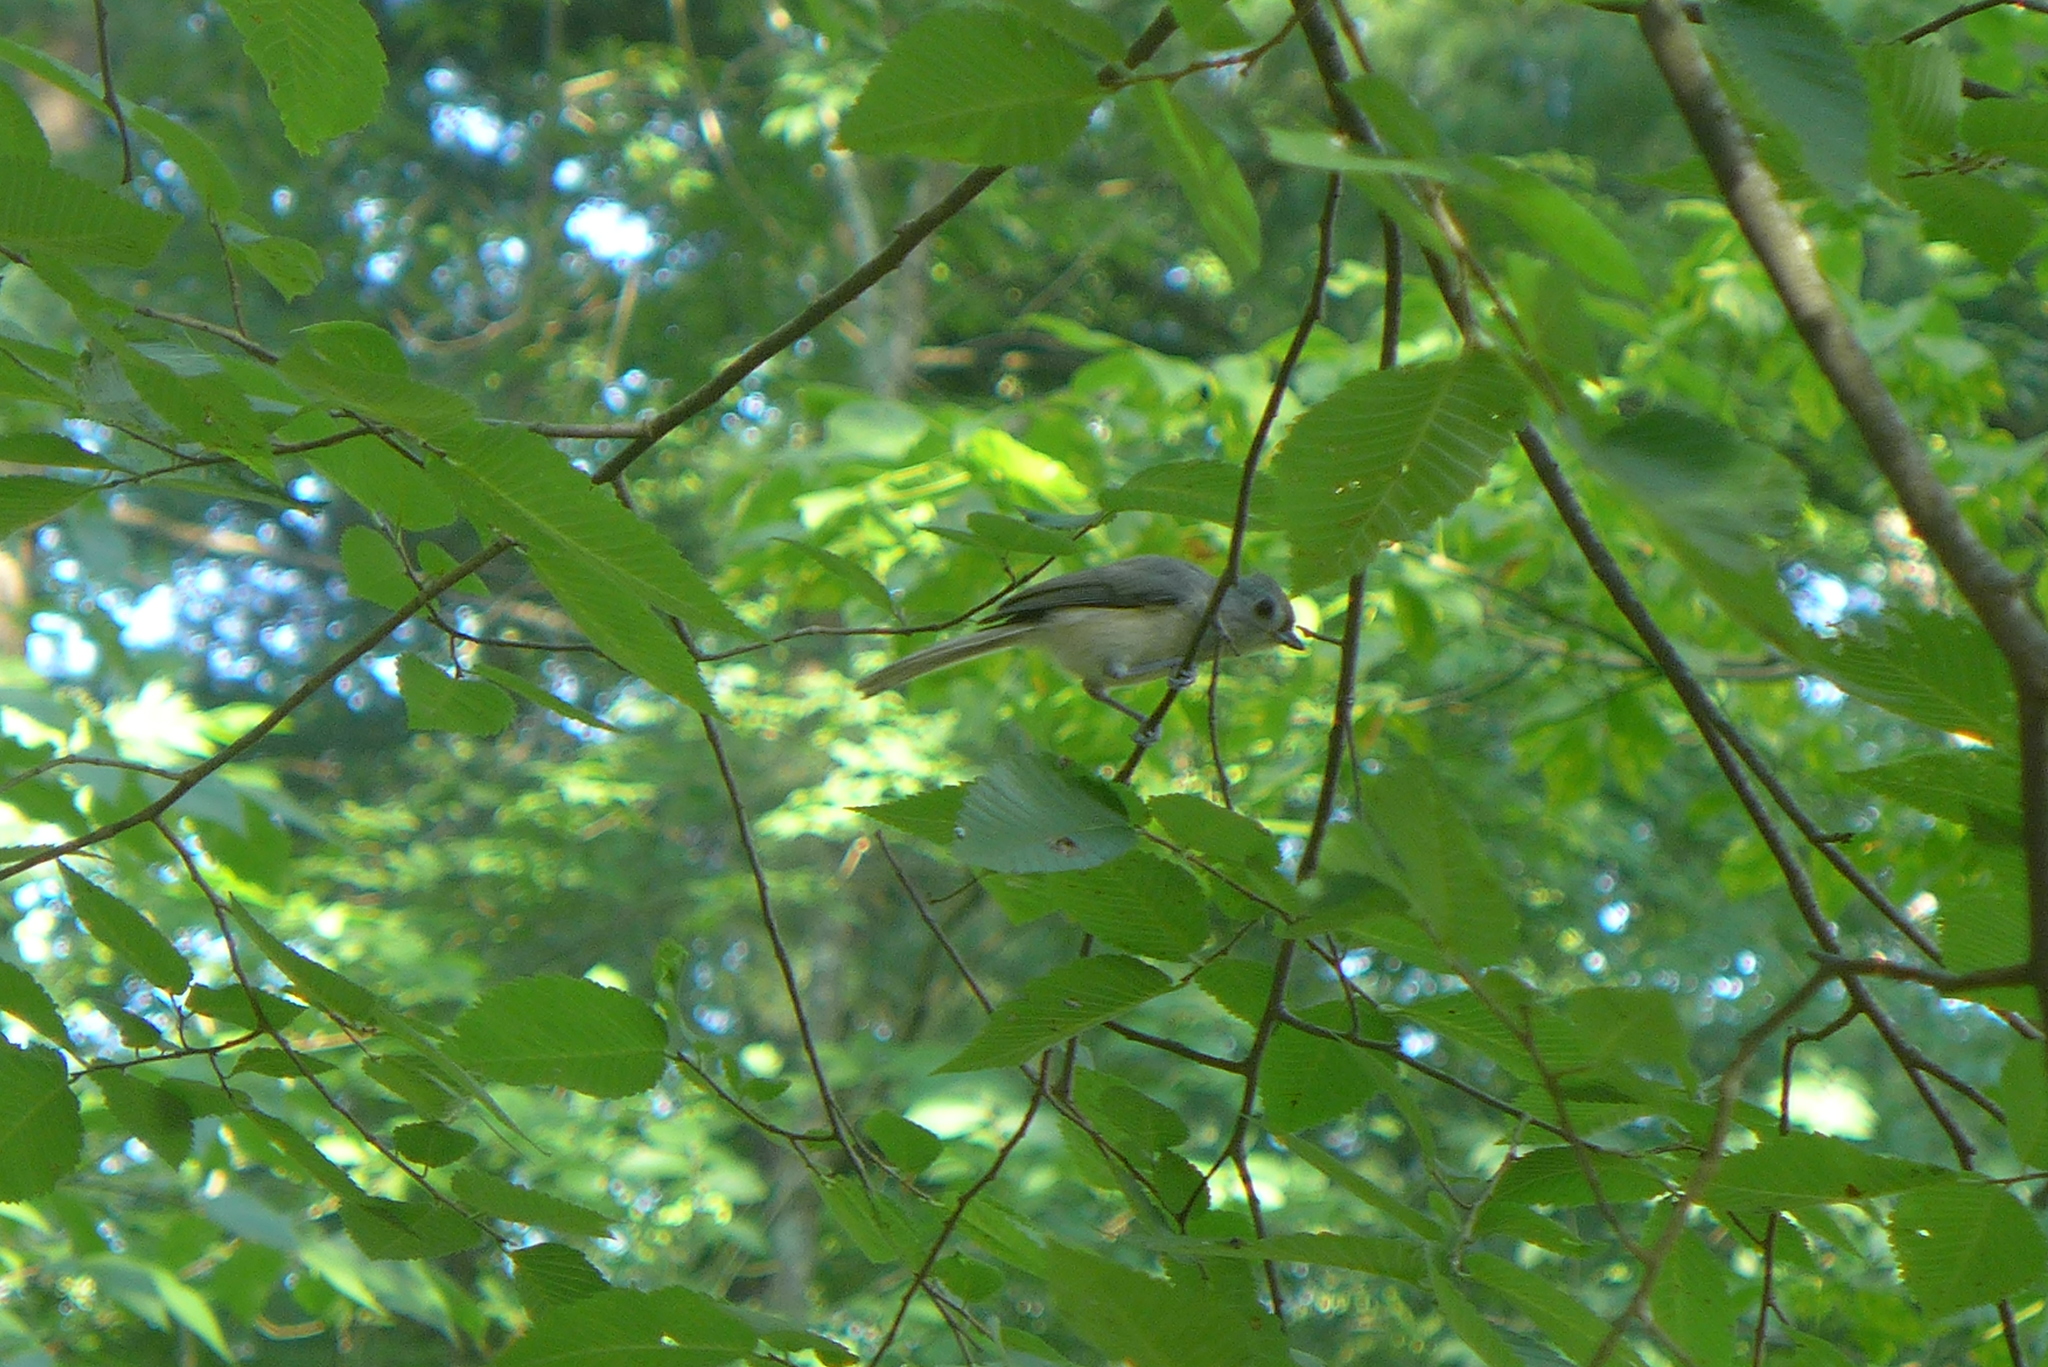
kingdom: Animalia
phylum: Chordata
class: Aves
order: Passeriformes
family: Paridae
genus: Baeolophus
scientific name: Baeolophus bicolor
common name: Tufted titmouse
